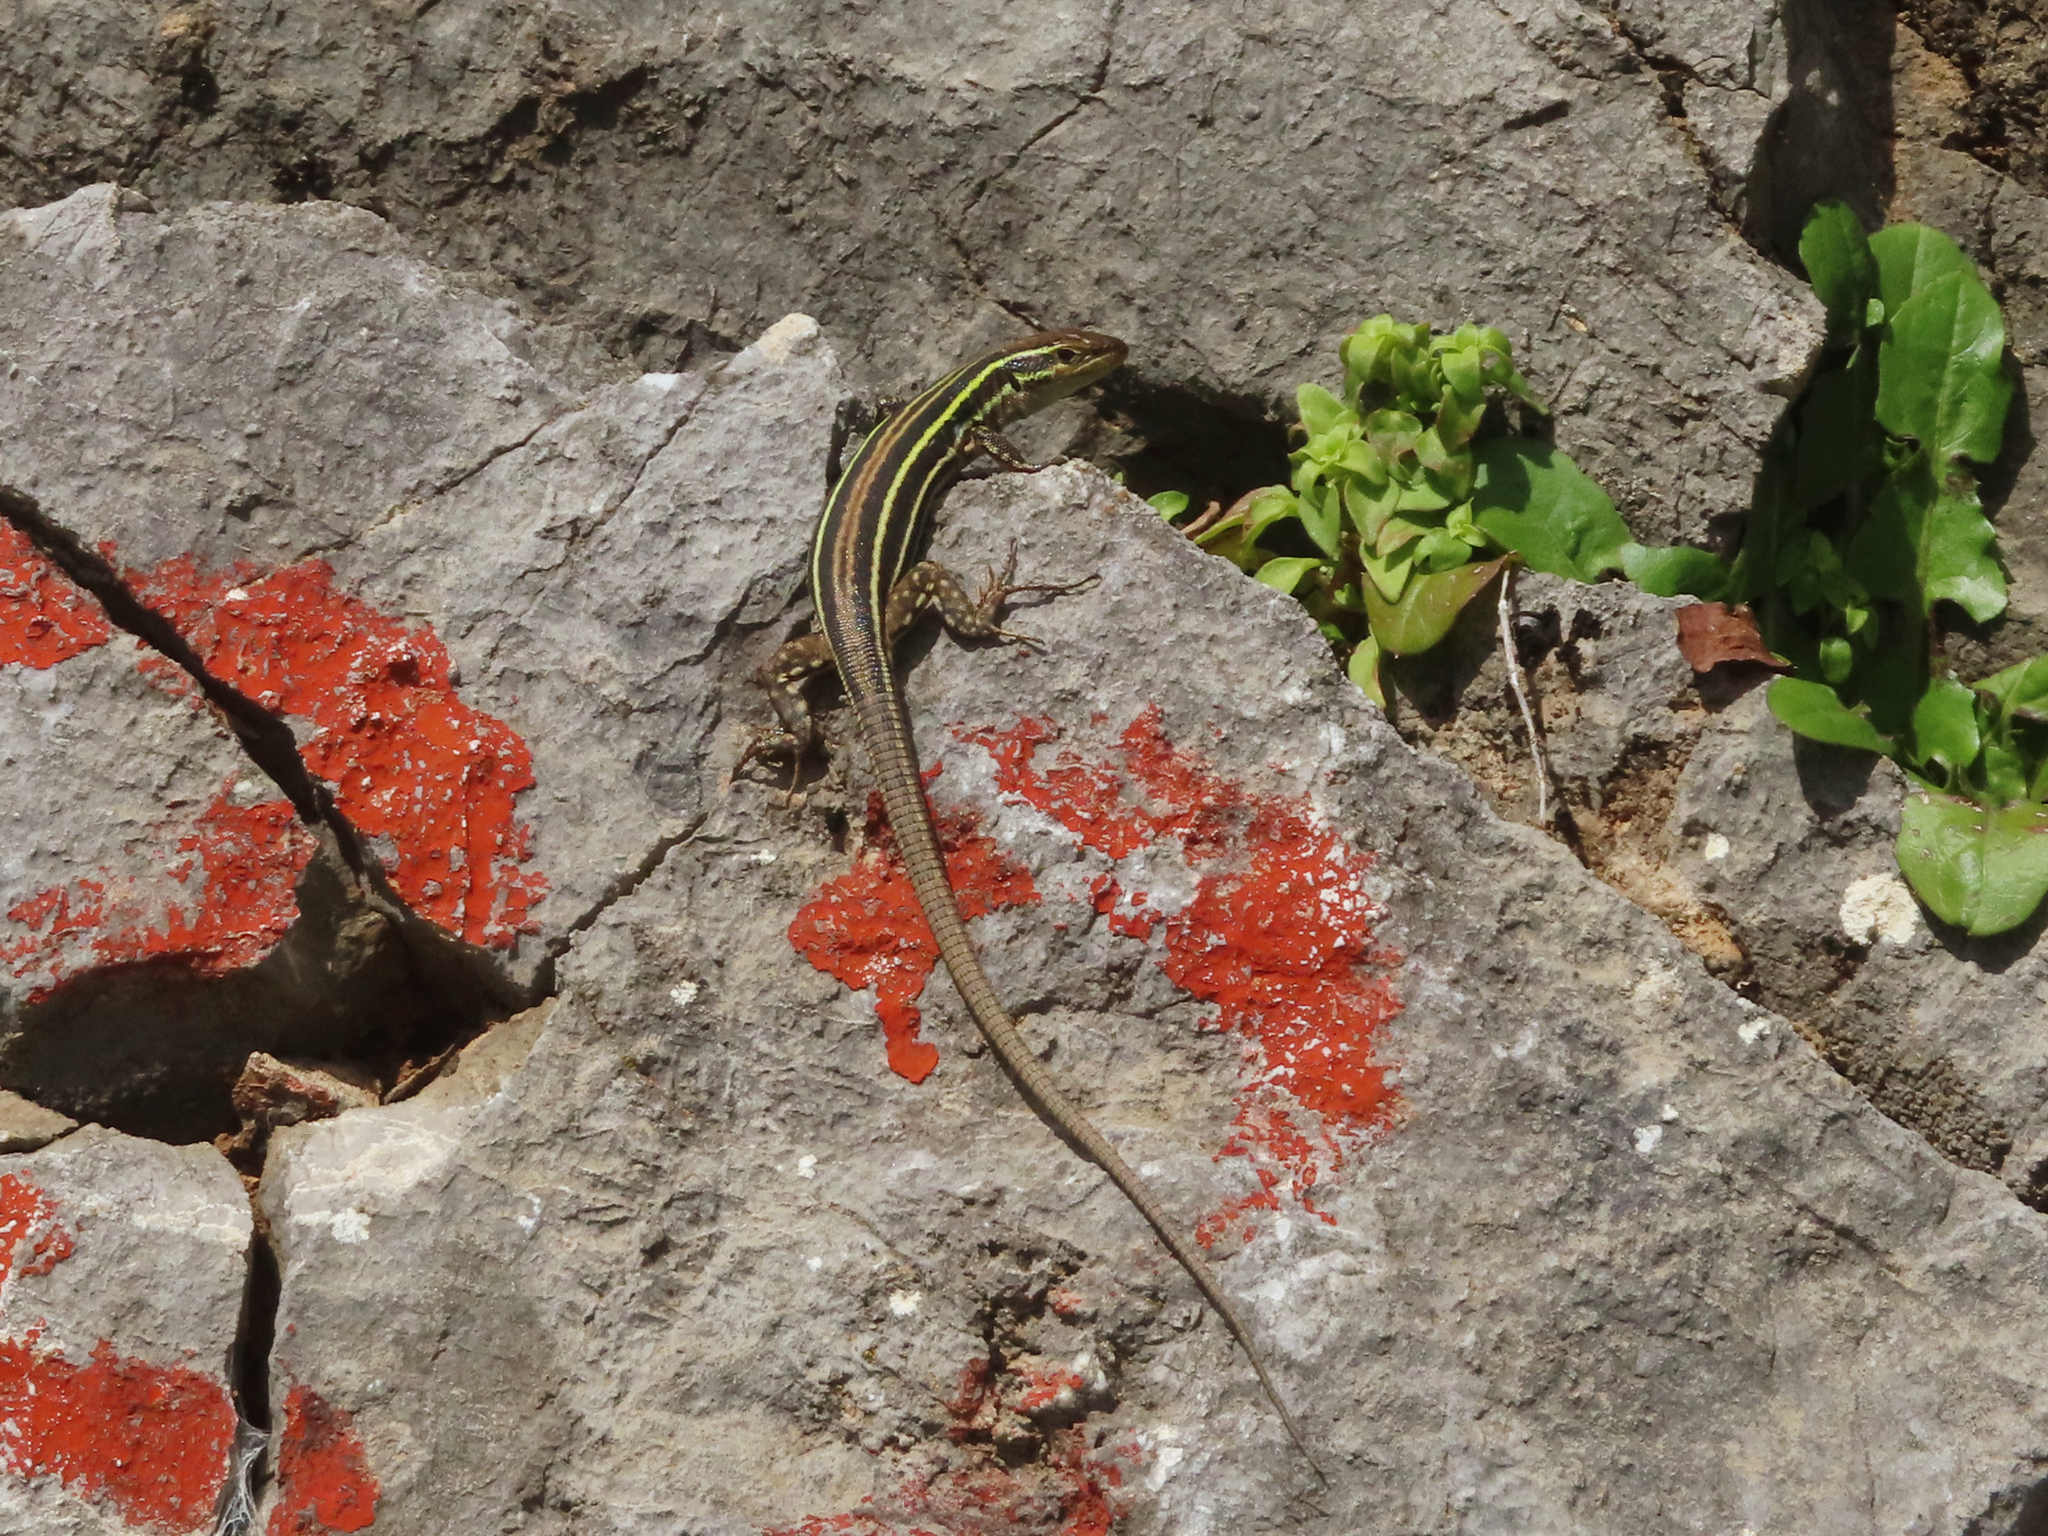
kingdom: Animalia
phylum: Chordata
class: Squamata
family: Lacertidae
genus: Podarcis
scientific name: Podarcis peloponnesiacus
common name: Peloponnese wall lizard
